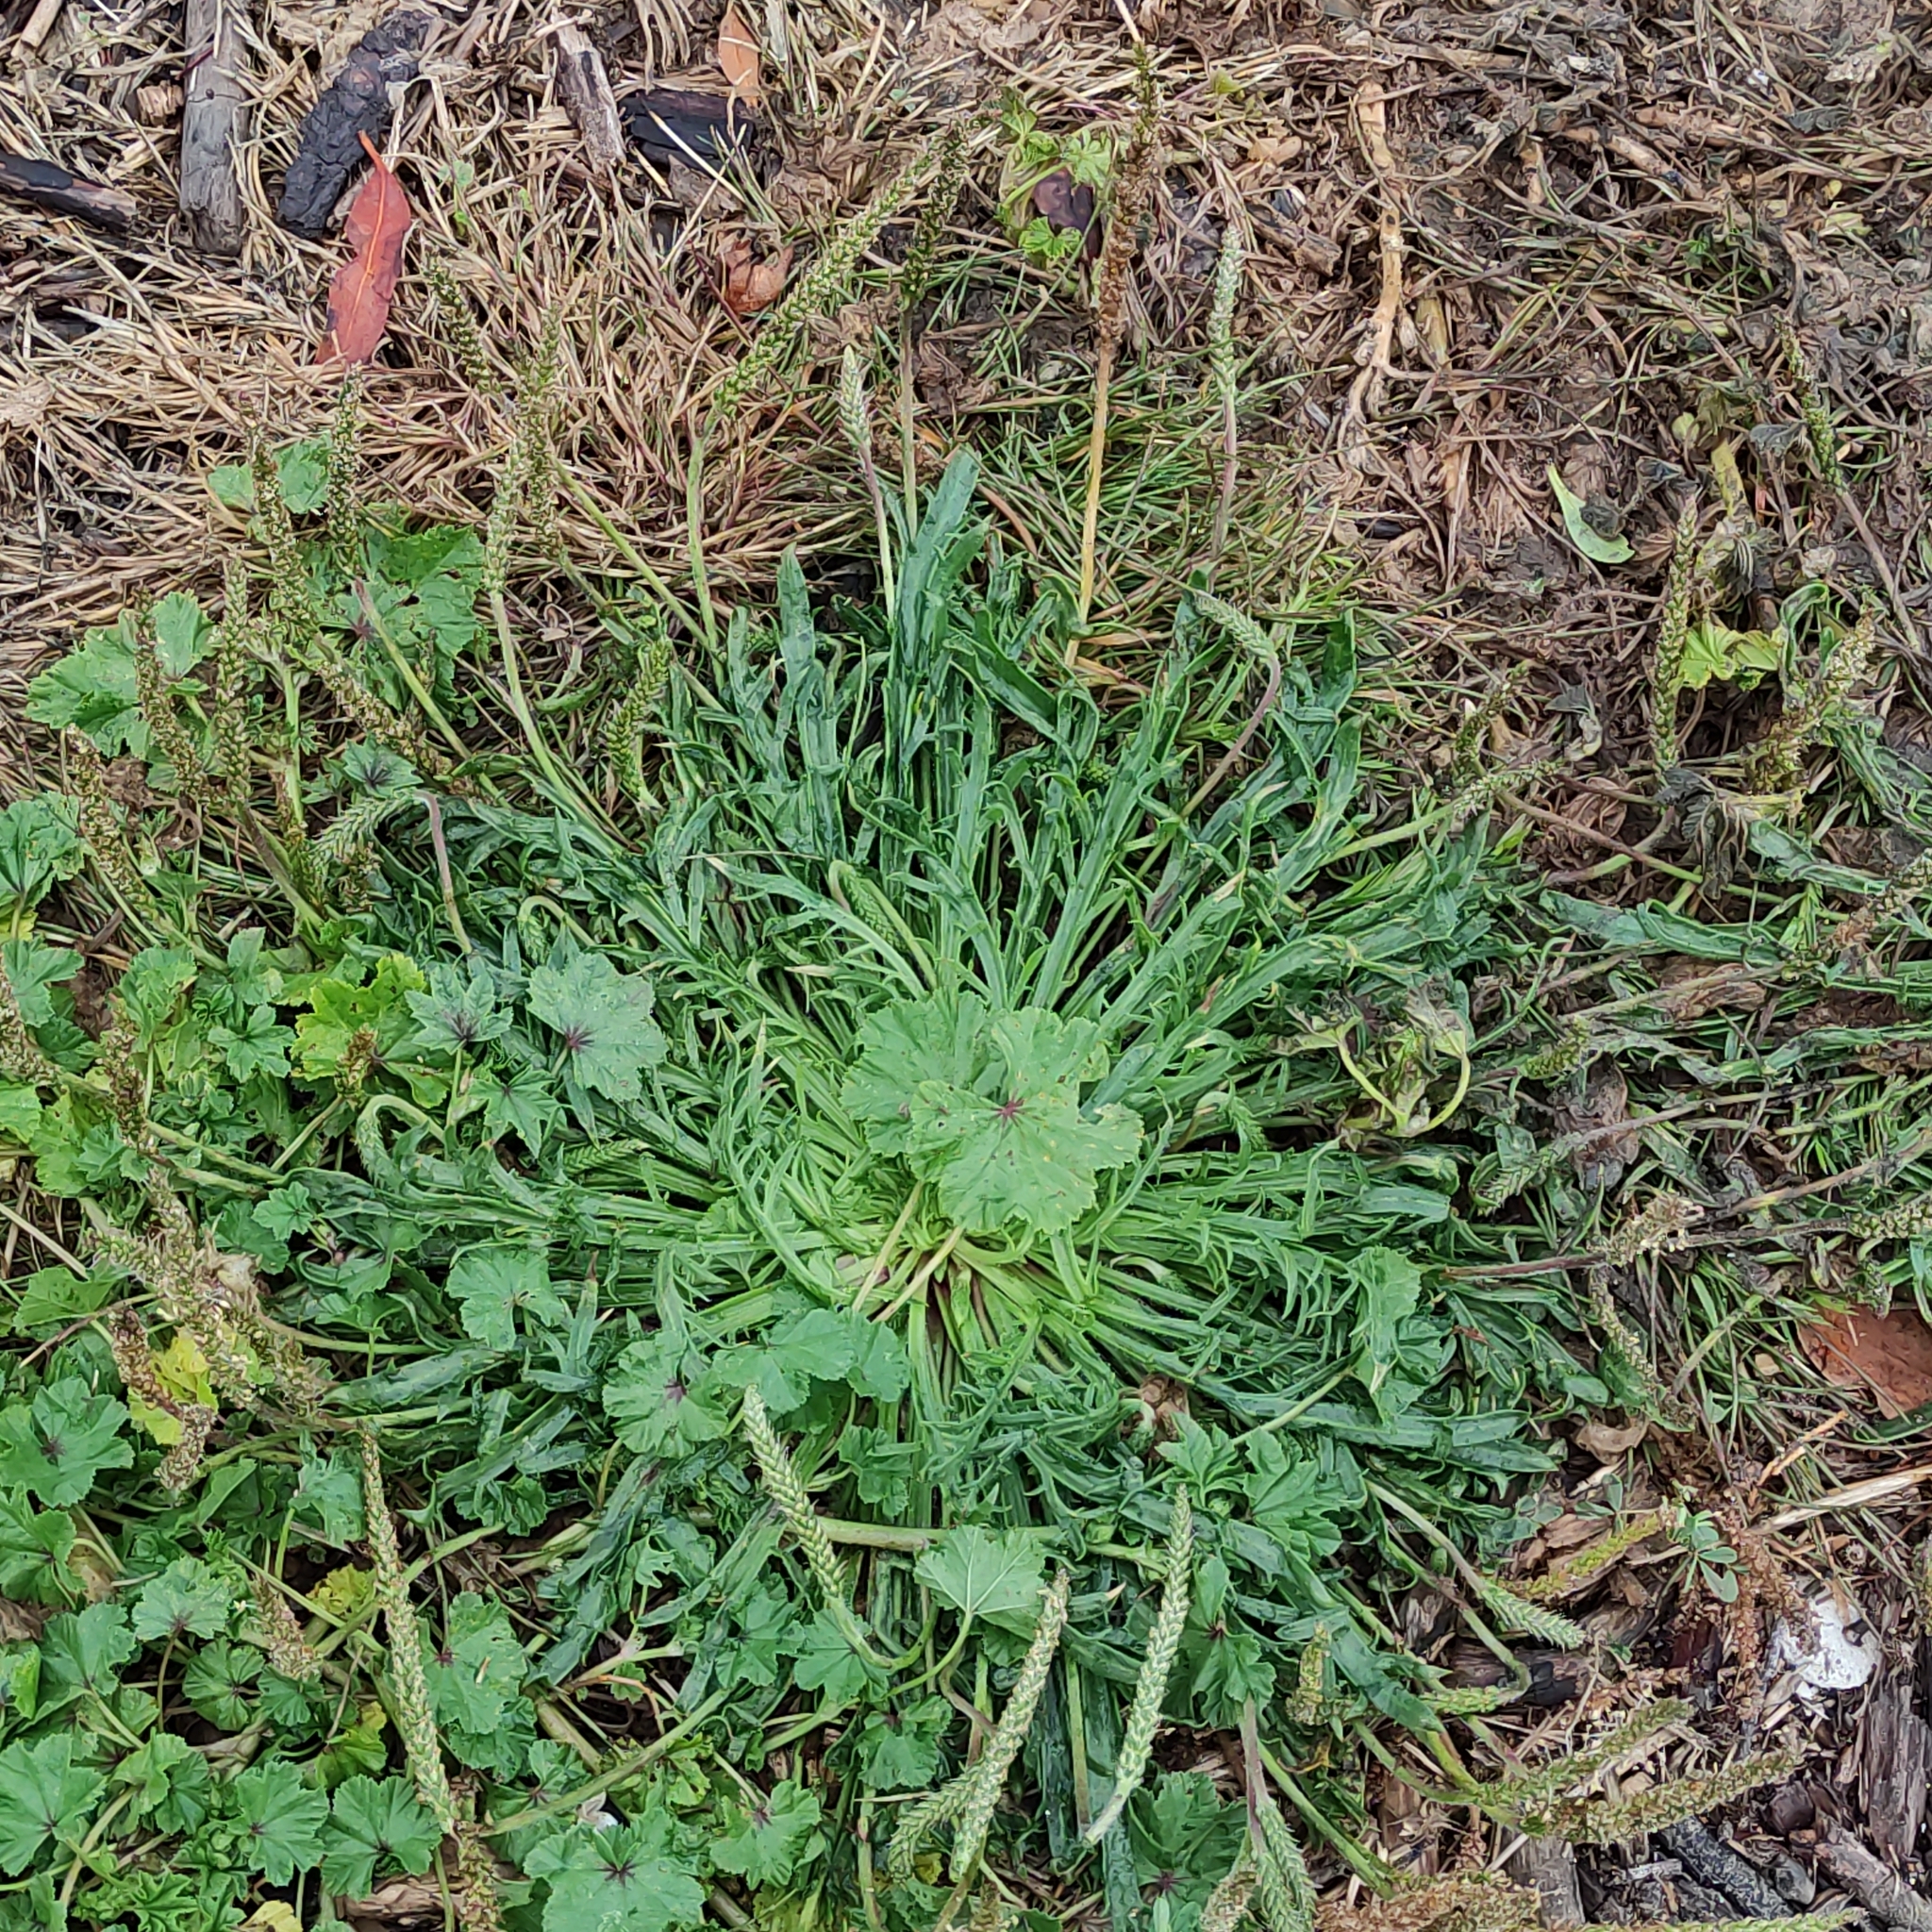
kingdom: Plantae
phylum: Tracheophyta
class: Magnoliopsida
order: Lamiales
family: Plantaginaceae
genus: Plantago
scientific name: Plantago coronopus
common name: Buck's-horn plantain
